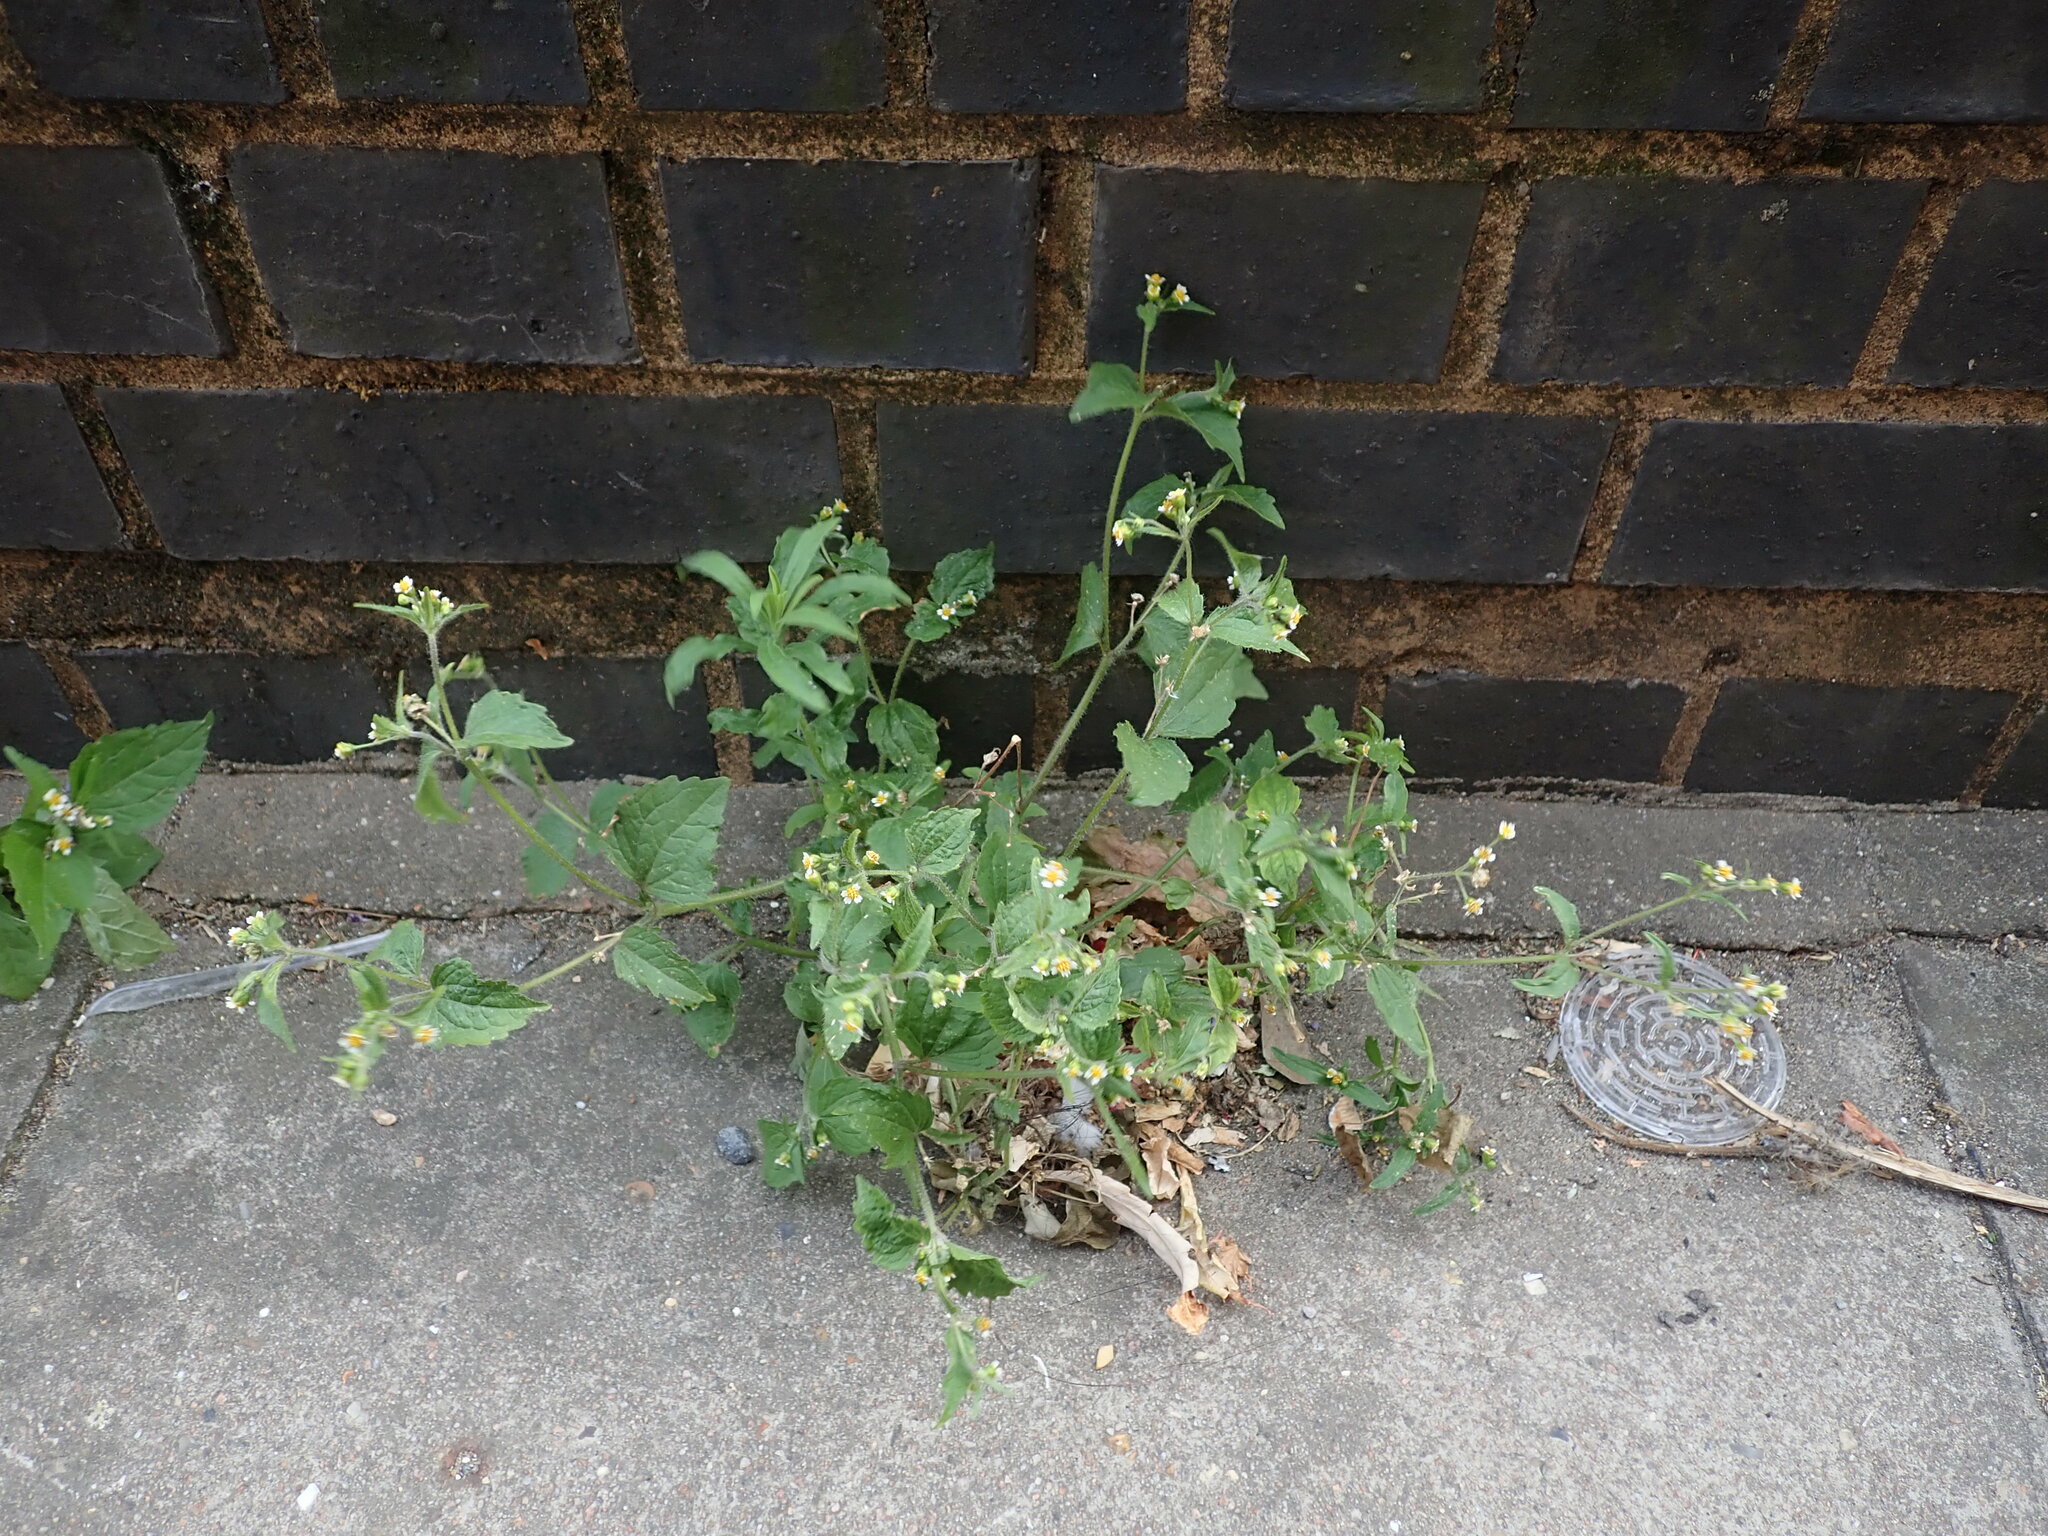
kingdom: Plantae
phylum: Tracheophyta
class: Magnoliopsida
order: Asterales
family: Asteraceae
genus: Galinsoga
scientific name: Galinsoga quadriradiata
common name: Shaggy soldier
